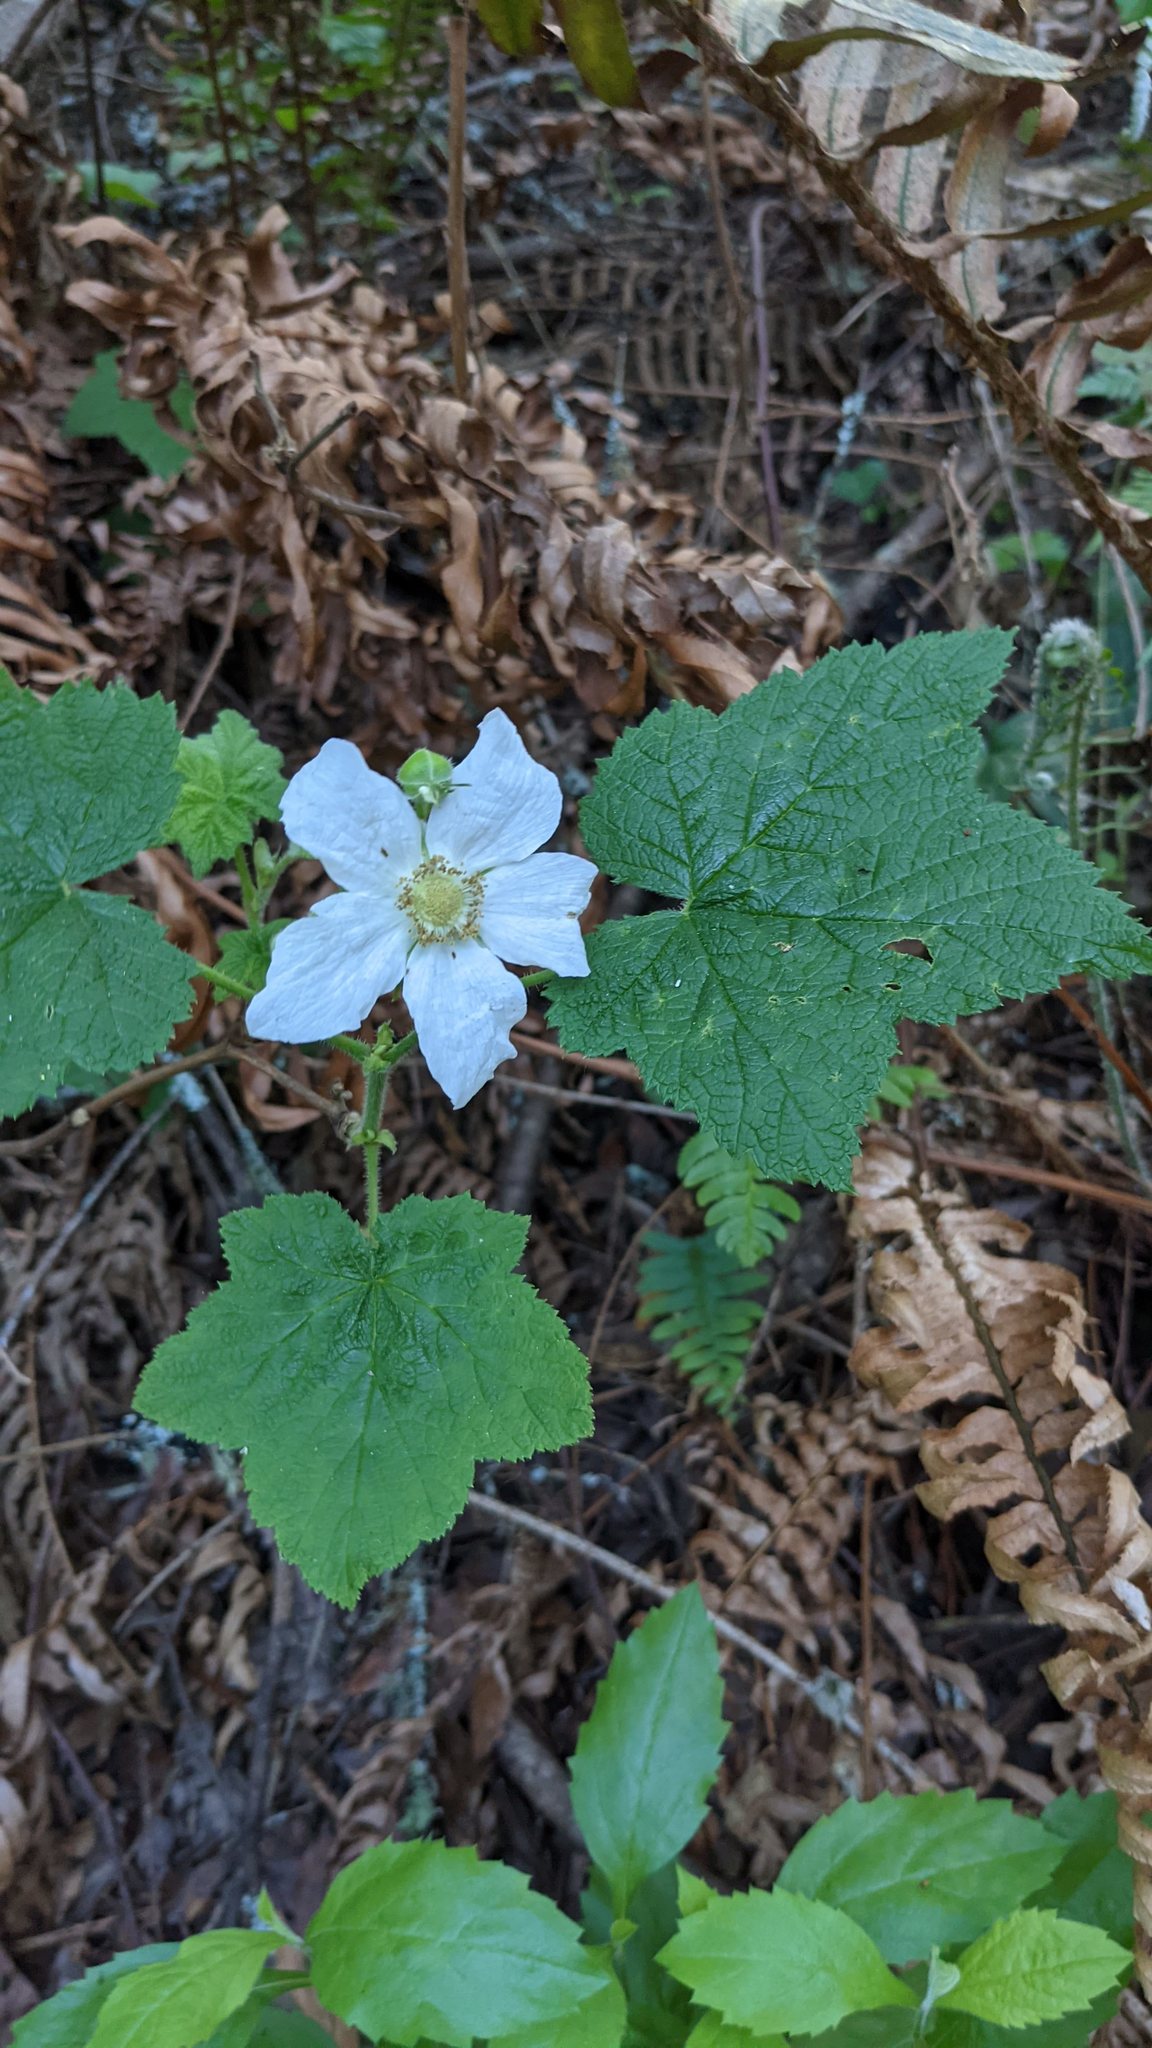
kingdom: Plantae
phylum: Tracheophyta
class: Magnoliopsida
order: Rosales
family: Rosaceae
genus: Rubus
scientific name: Rubus parviflorus
